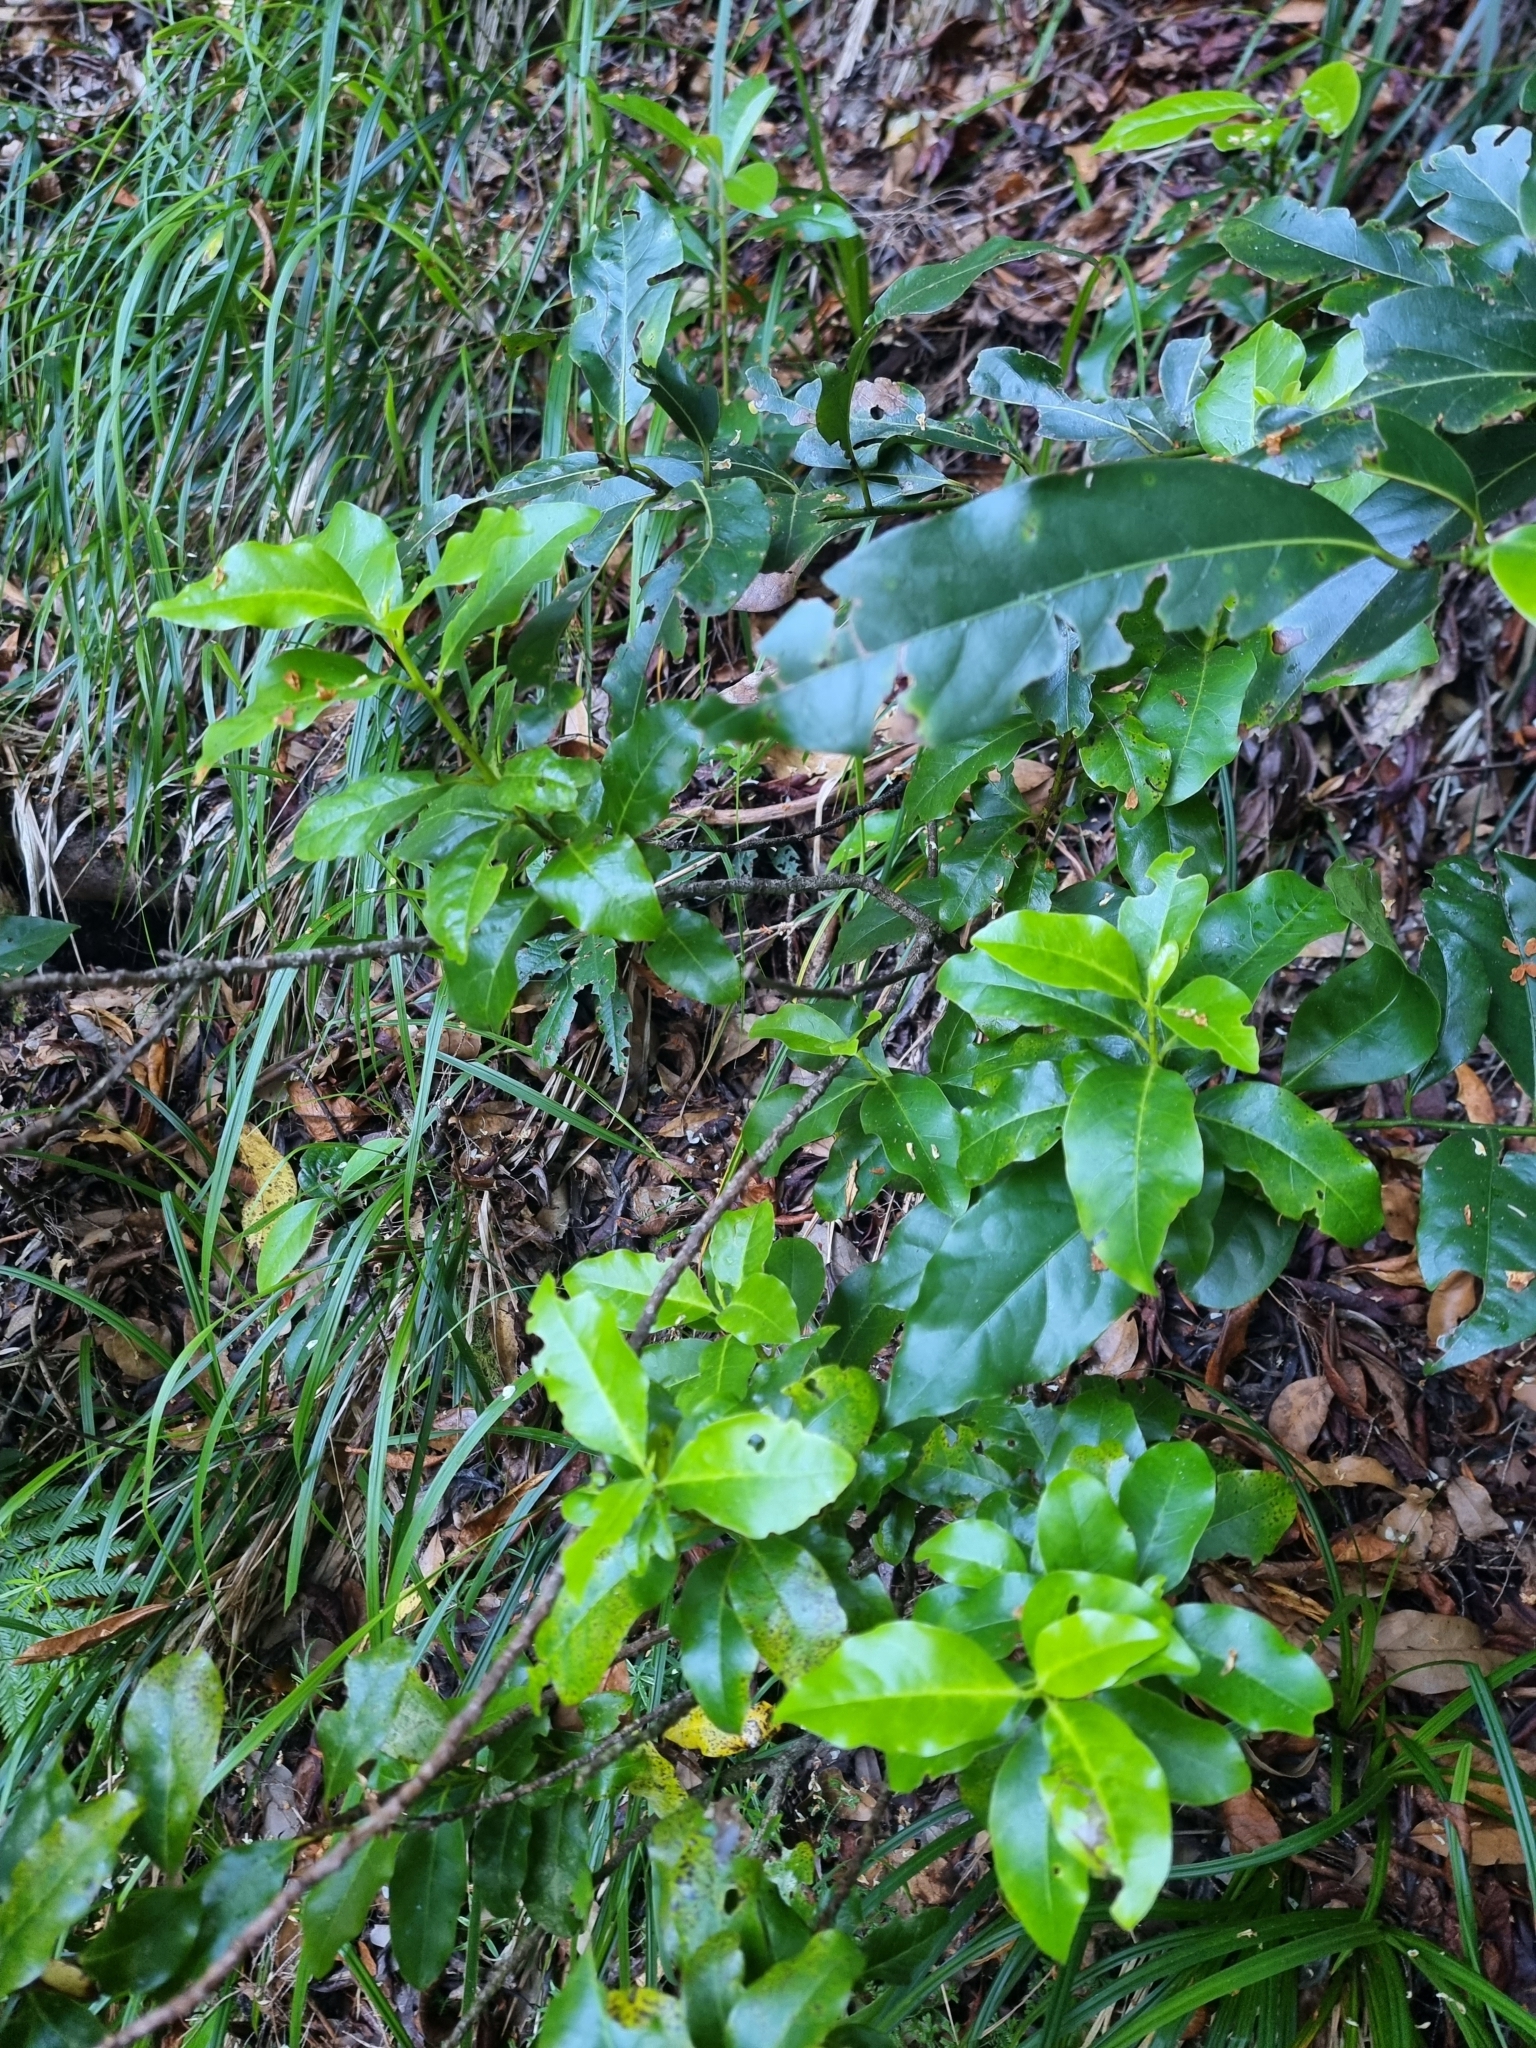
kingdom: Plantae
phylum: Tracheophyta
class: Magnoliopsida
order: Laurales
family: Lauraceae
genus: Mespilodaphne
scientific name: Mespilodaphne foetens
